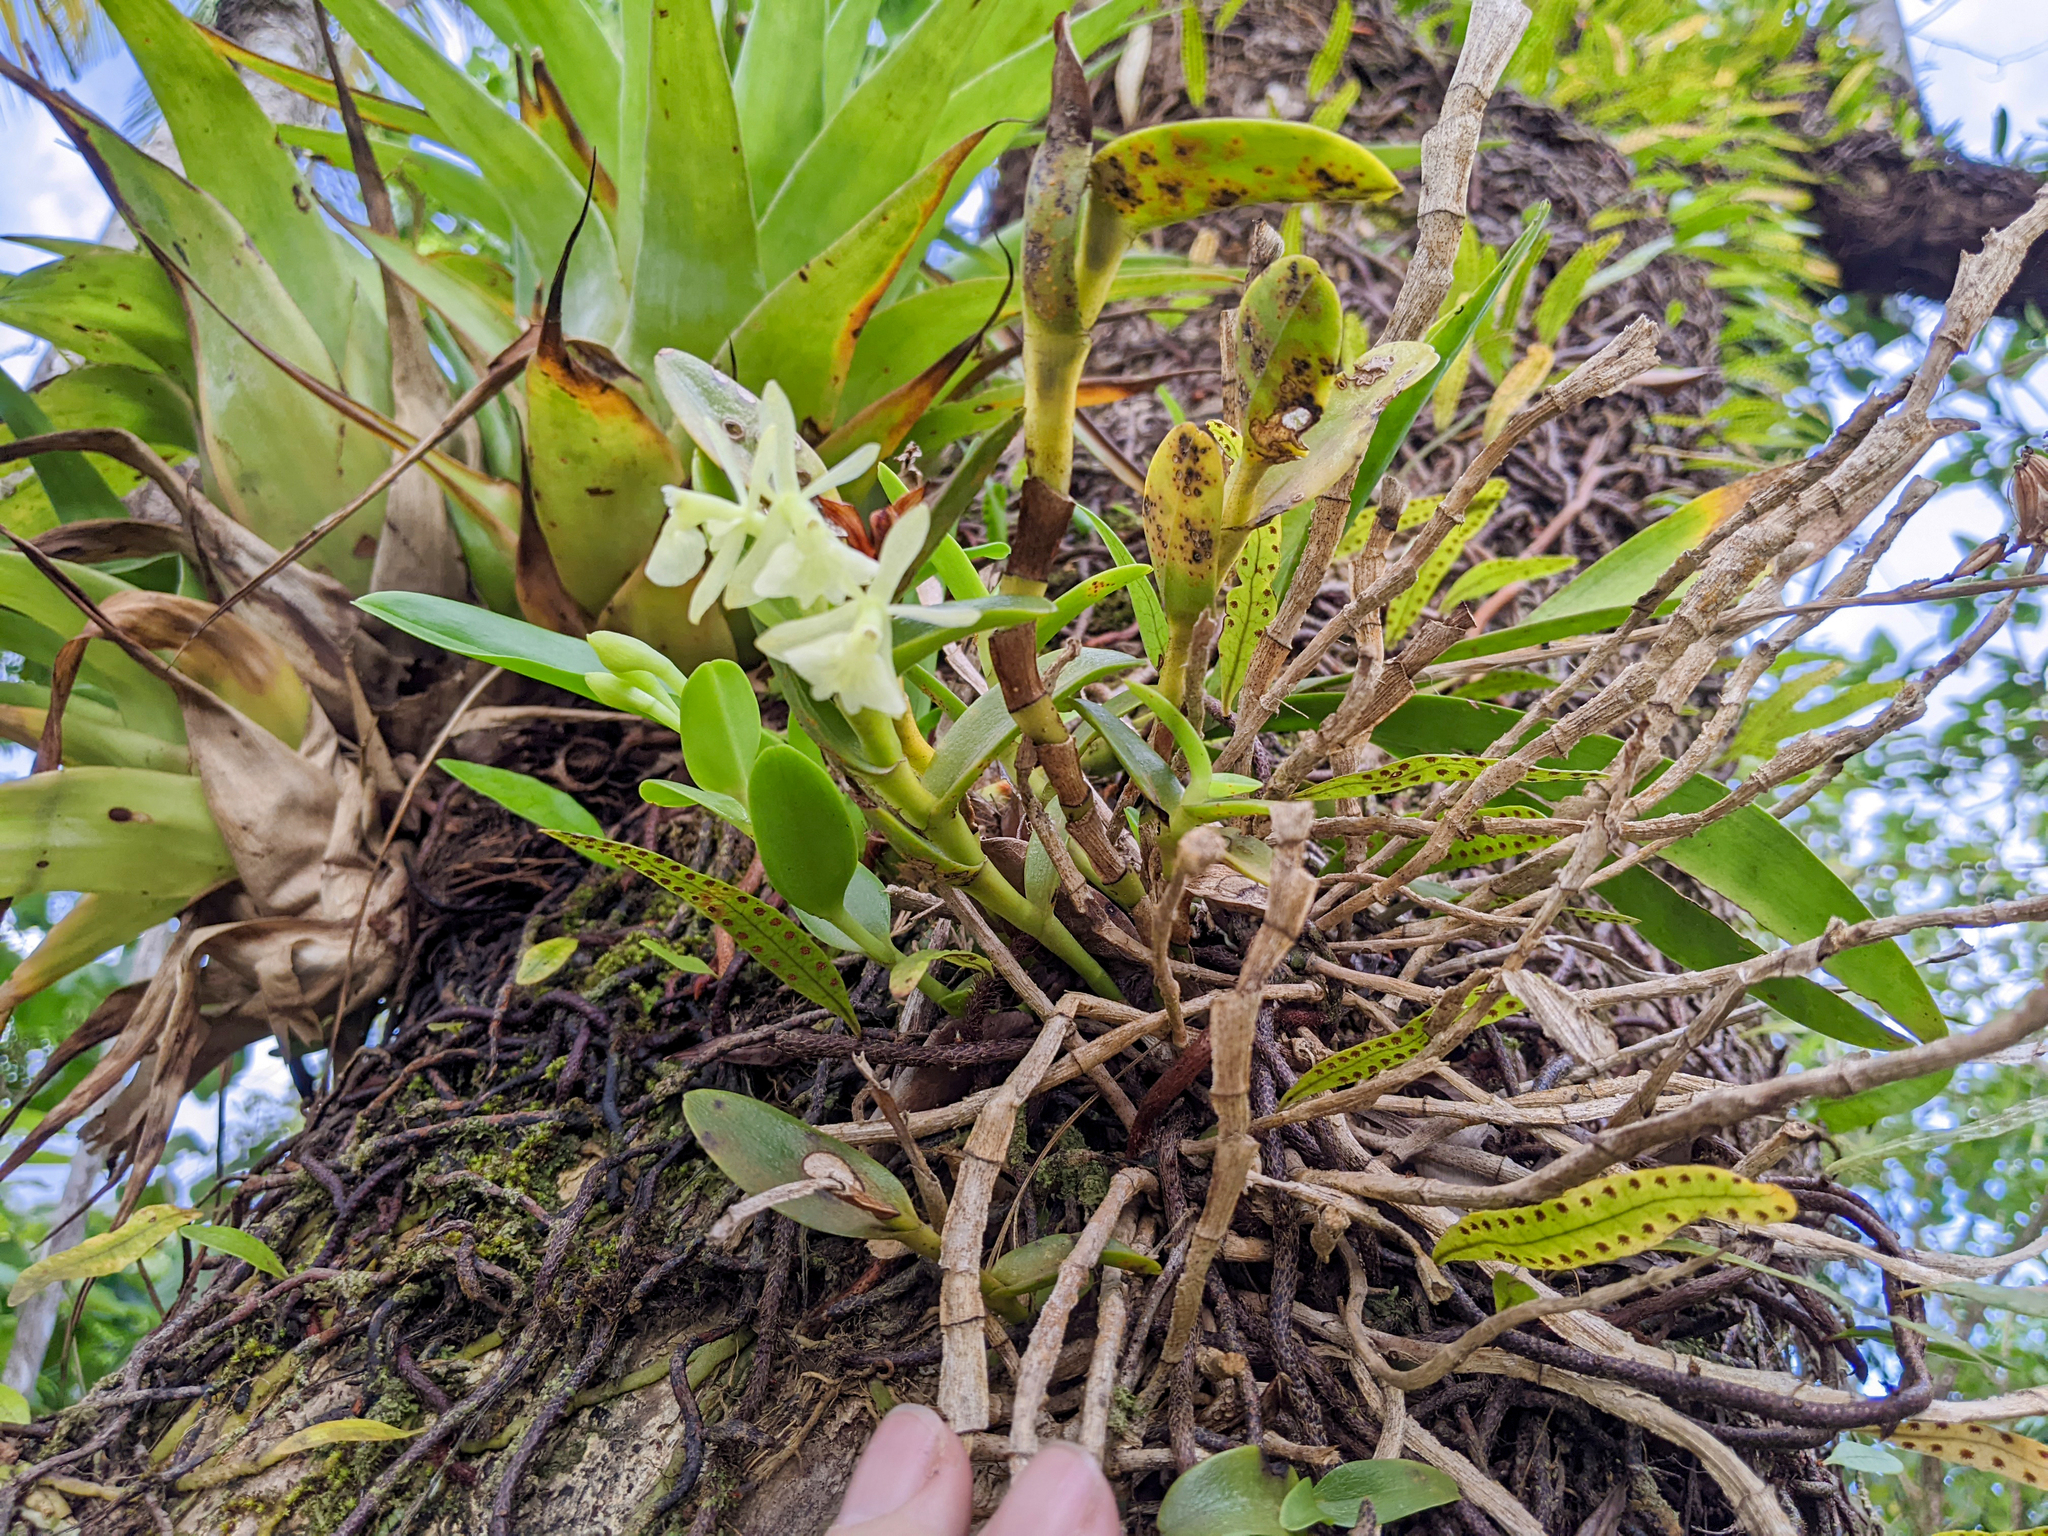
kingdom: Plantae
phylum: Tracheophyta
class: Liliopsida
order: Asparagales
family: Orchidaceae
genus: Epidendrum
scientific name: Epidendrum difforme
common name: Umbrella epidendrum
